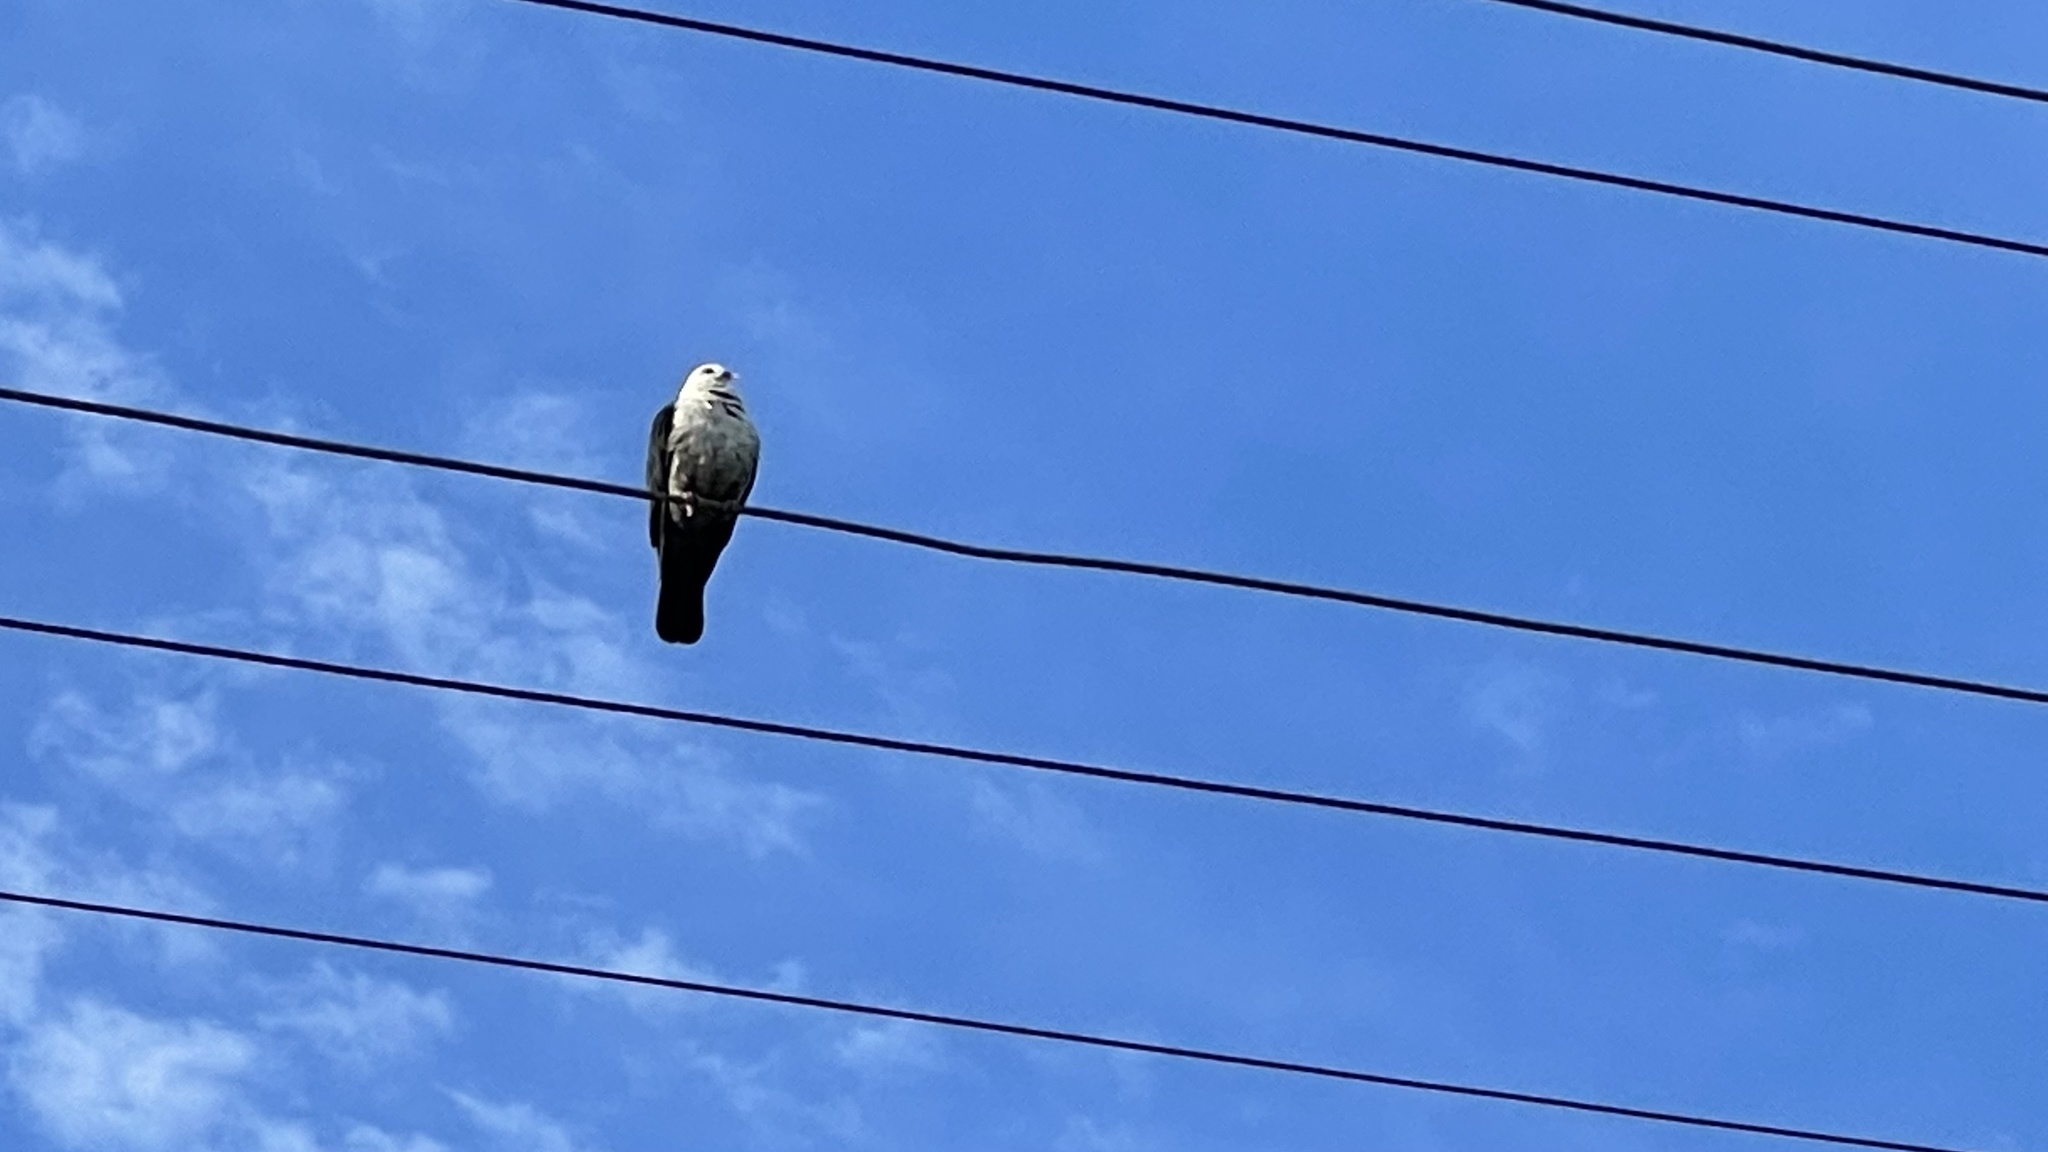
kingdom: Animalia
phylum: Chordata
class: Aves
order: Columbiformes
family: Columbidae
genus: Columba
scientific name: Columba leucomela
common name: White-headed pigeon
